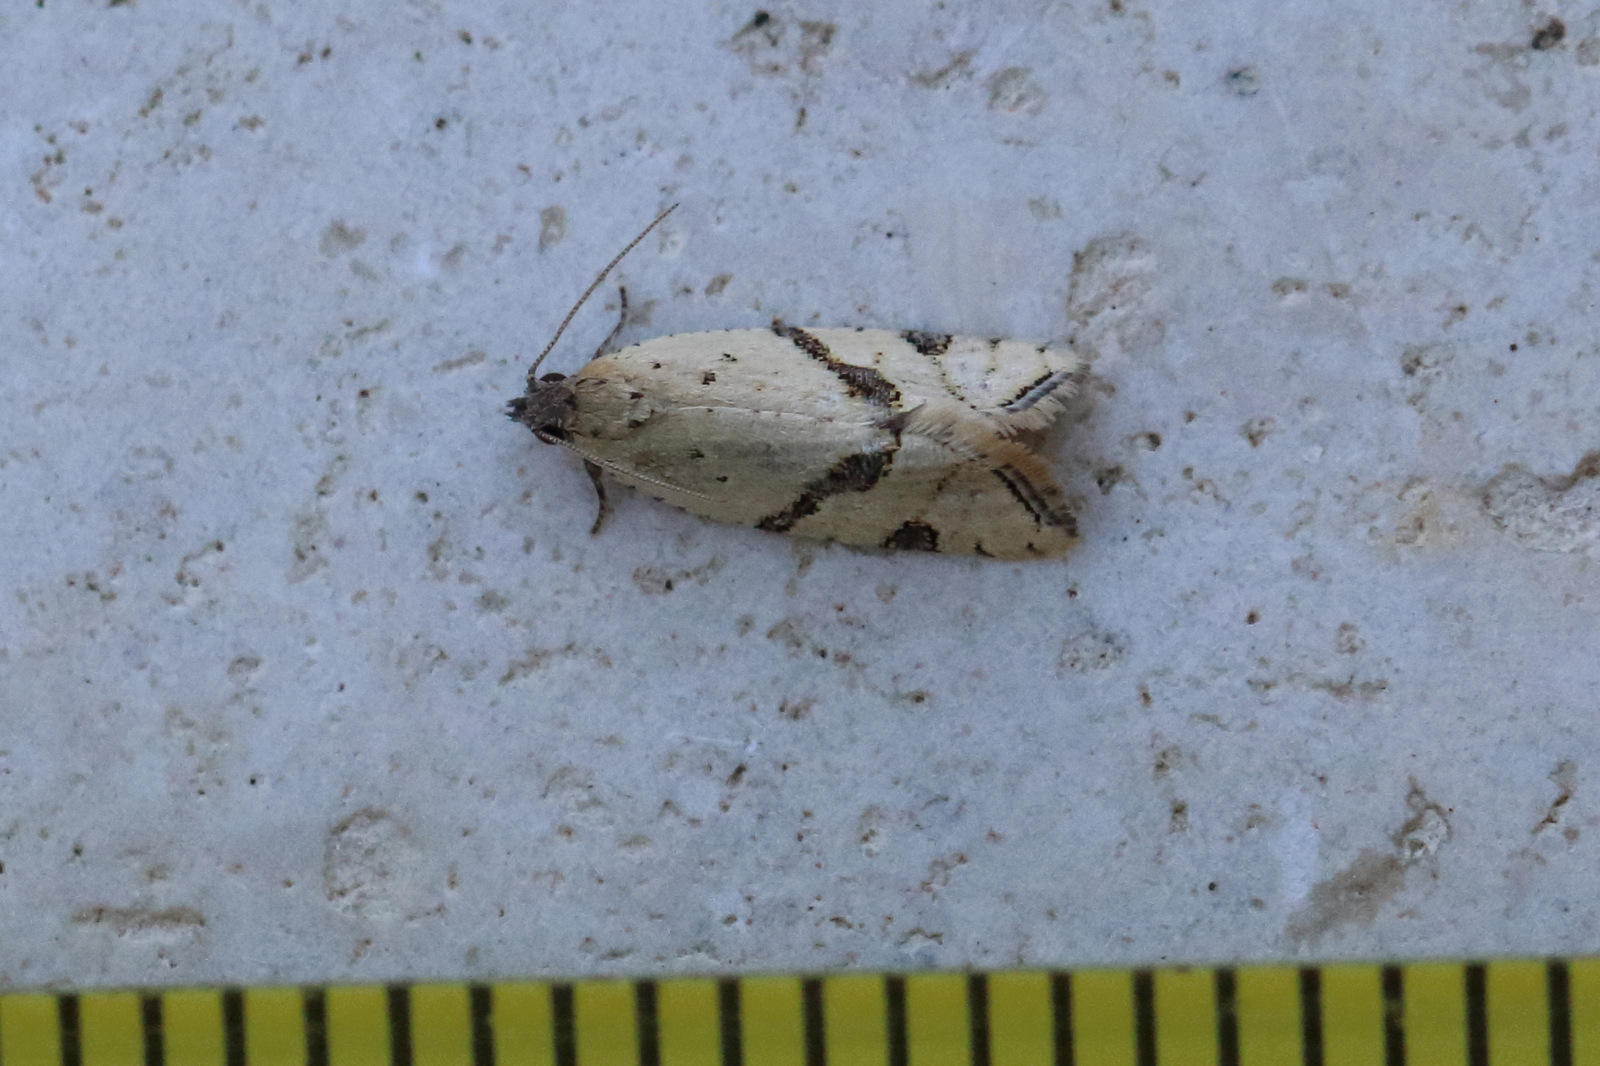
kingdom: Animalia
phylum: Arthropoda
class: Insecta
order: Lepidoptera
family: Tortricidae
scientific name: Tortricidae
